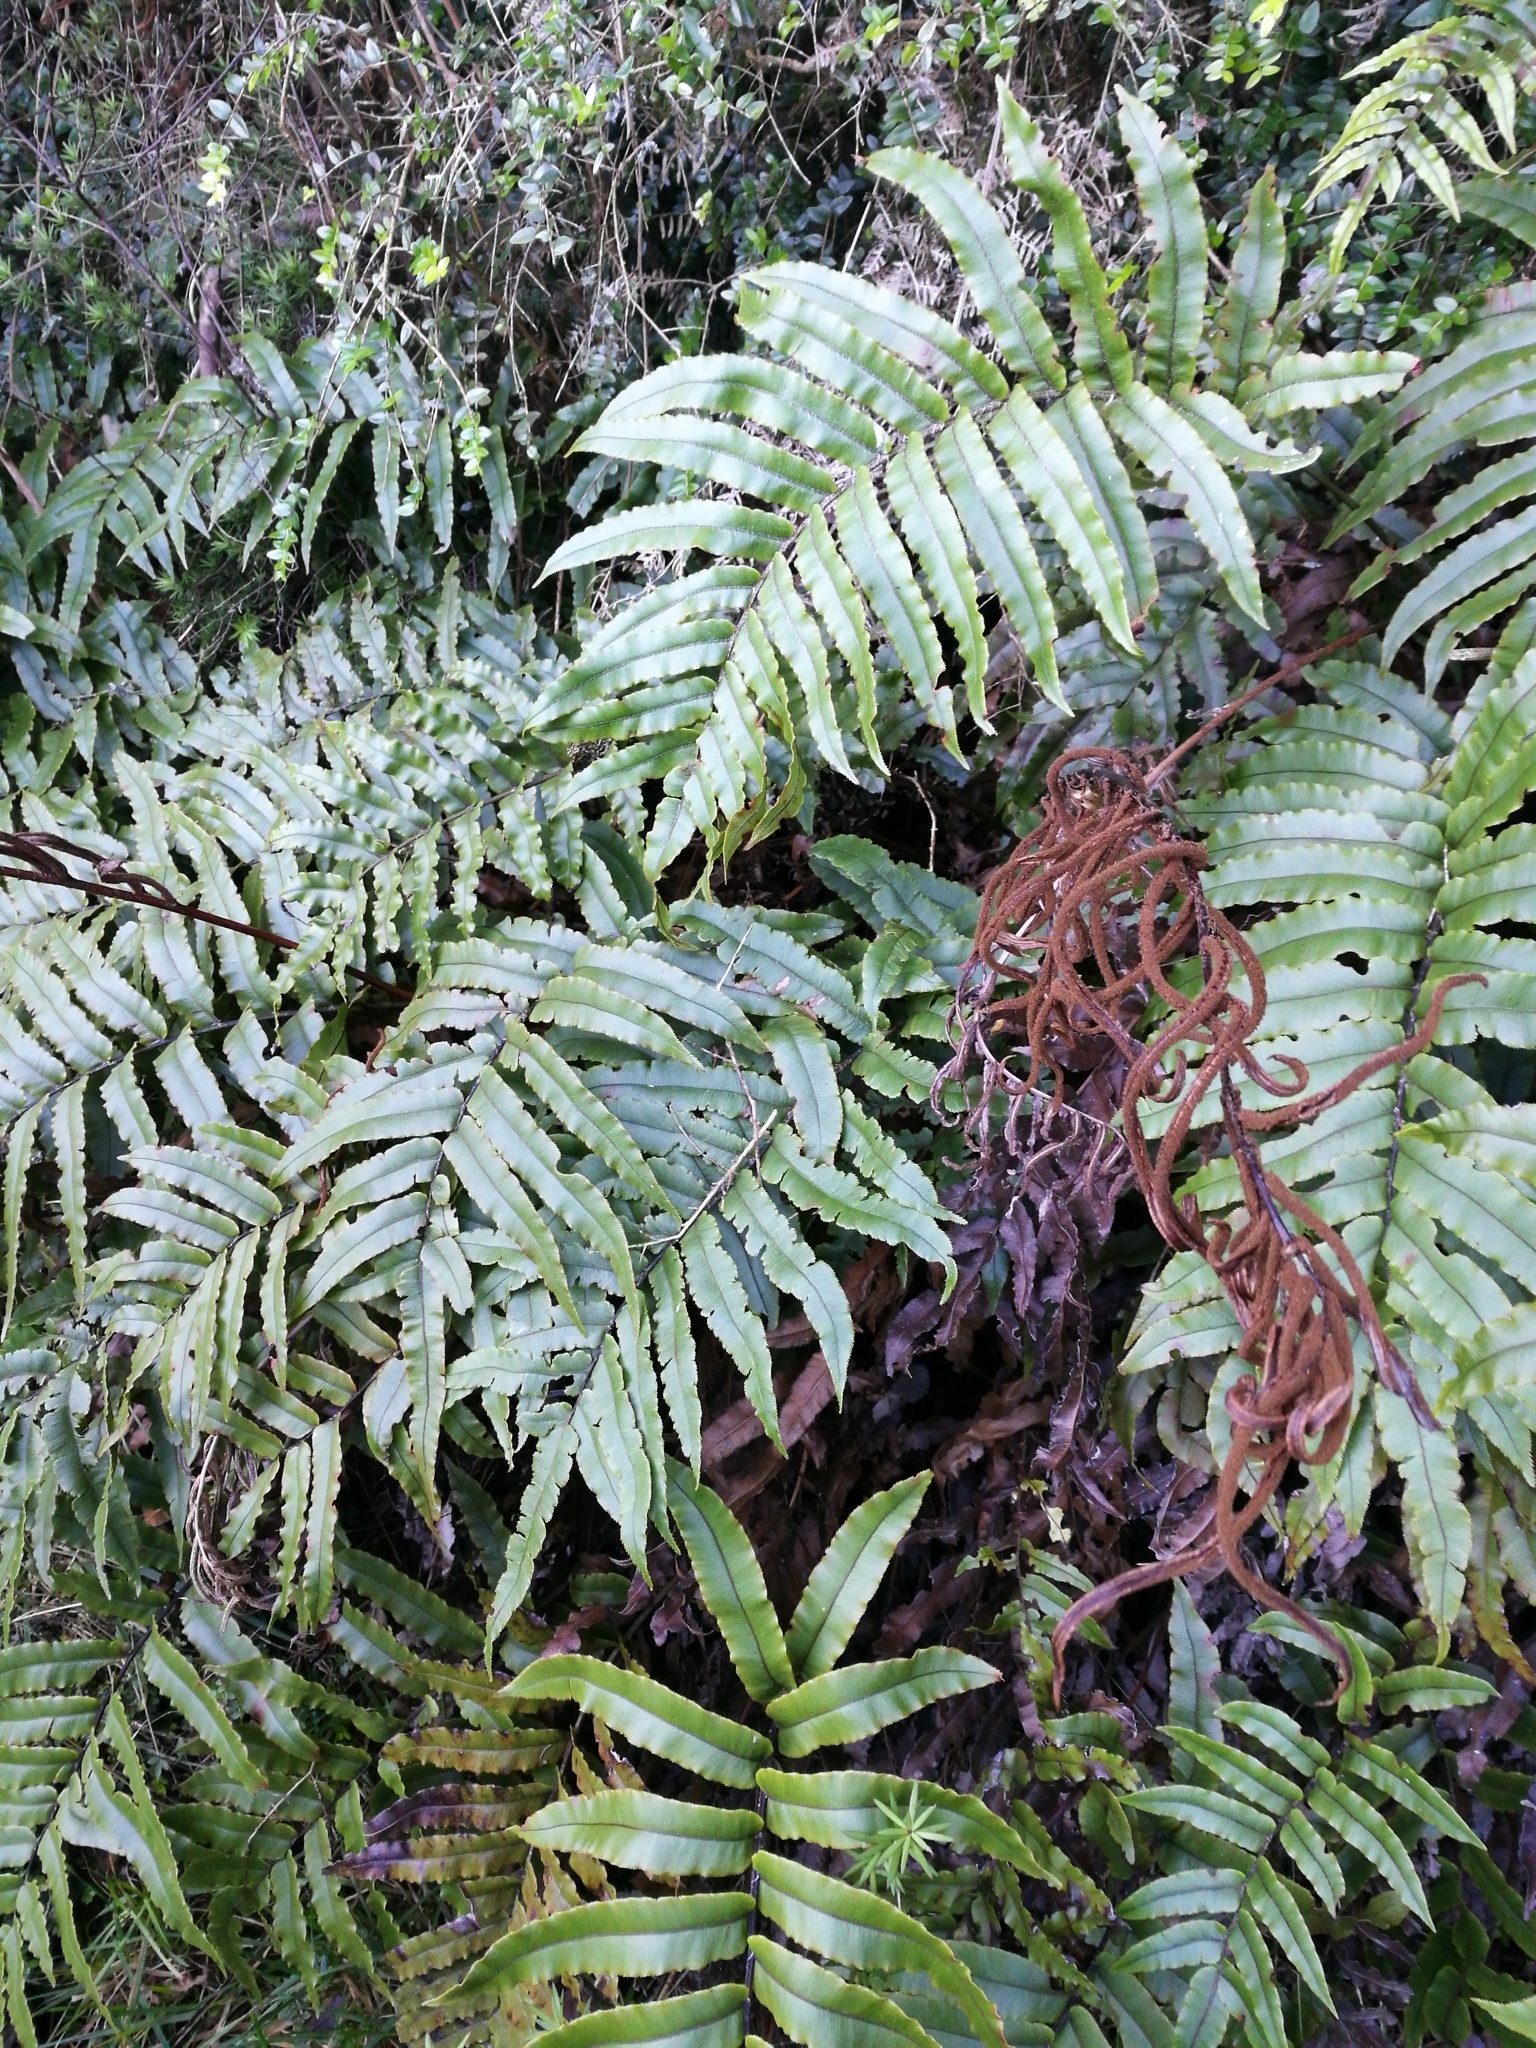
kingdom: Plantae
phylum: Tracheophyta
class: Polypodiopsida
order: Polypodiales
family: Blechnaceae
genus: Blechnum
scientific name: Blechnum
